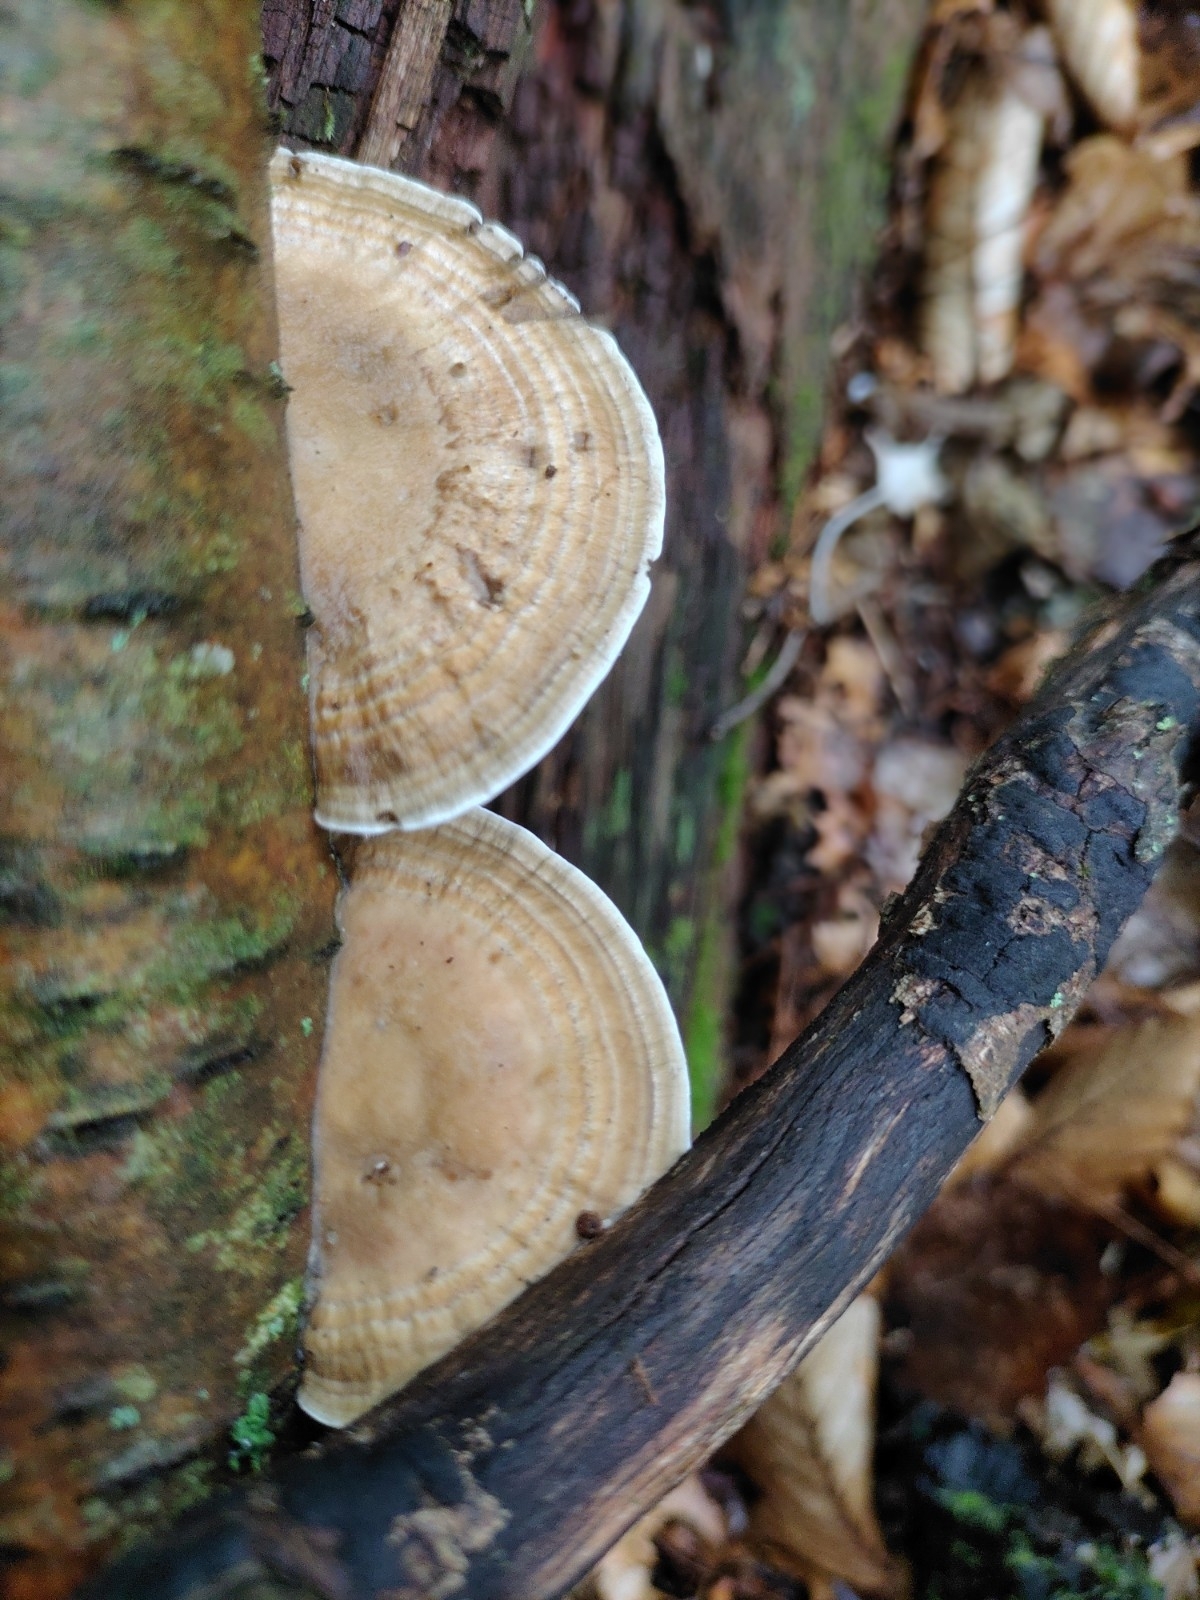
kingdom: Fungi
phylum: Basidiomycota
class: Agaricomycetes
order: Polyporales
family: Polyporaceae
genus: Daedaleopsis
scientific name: Daedaleopsis confragosa
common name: Blushing bracket
